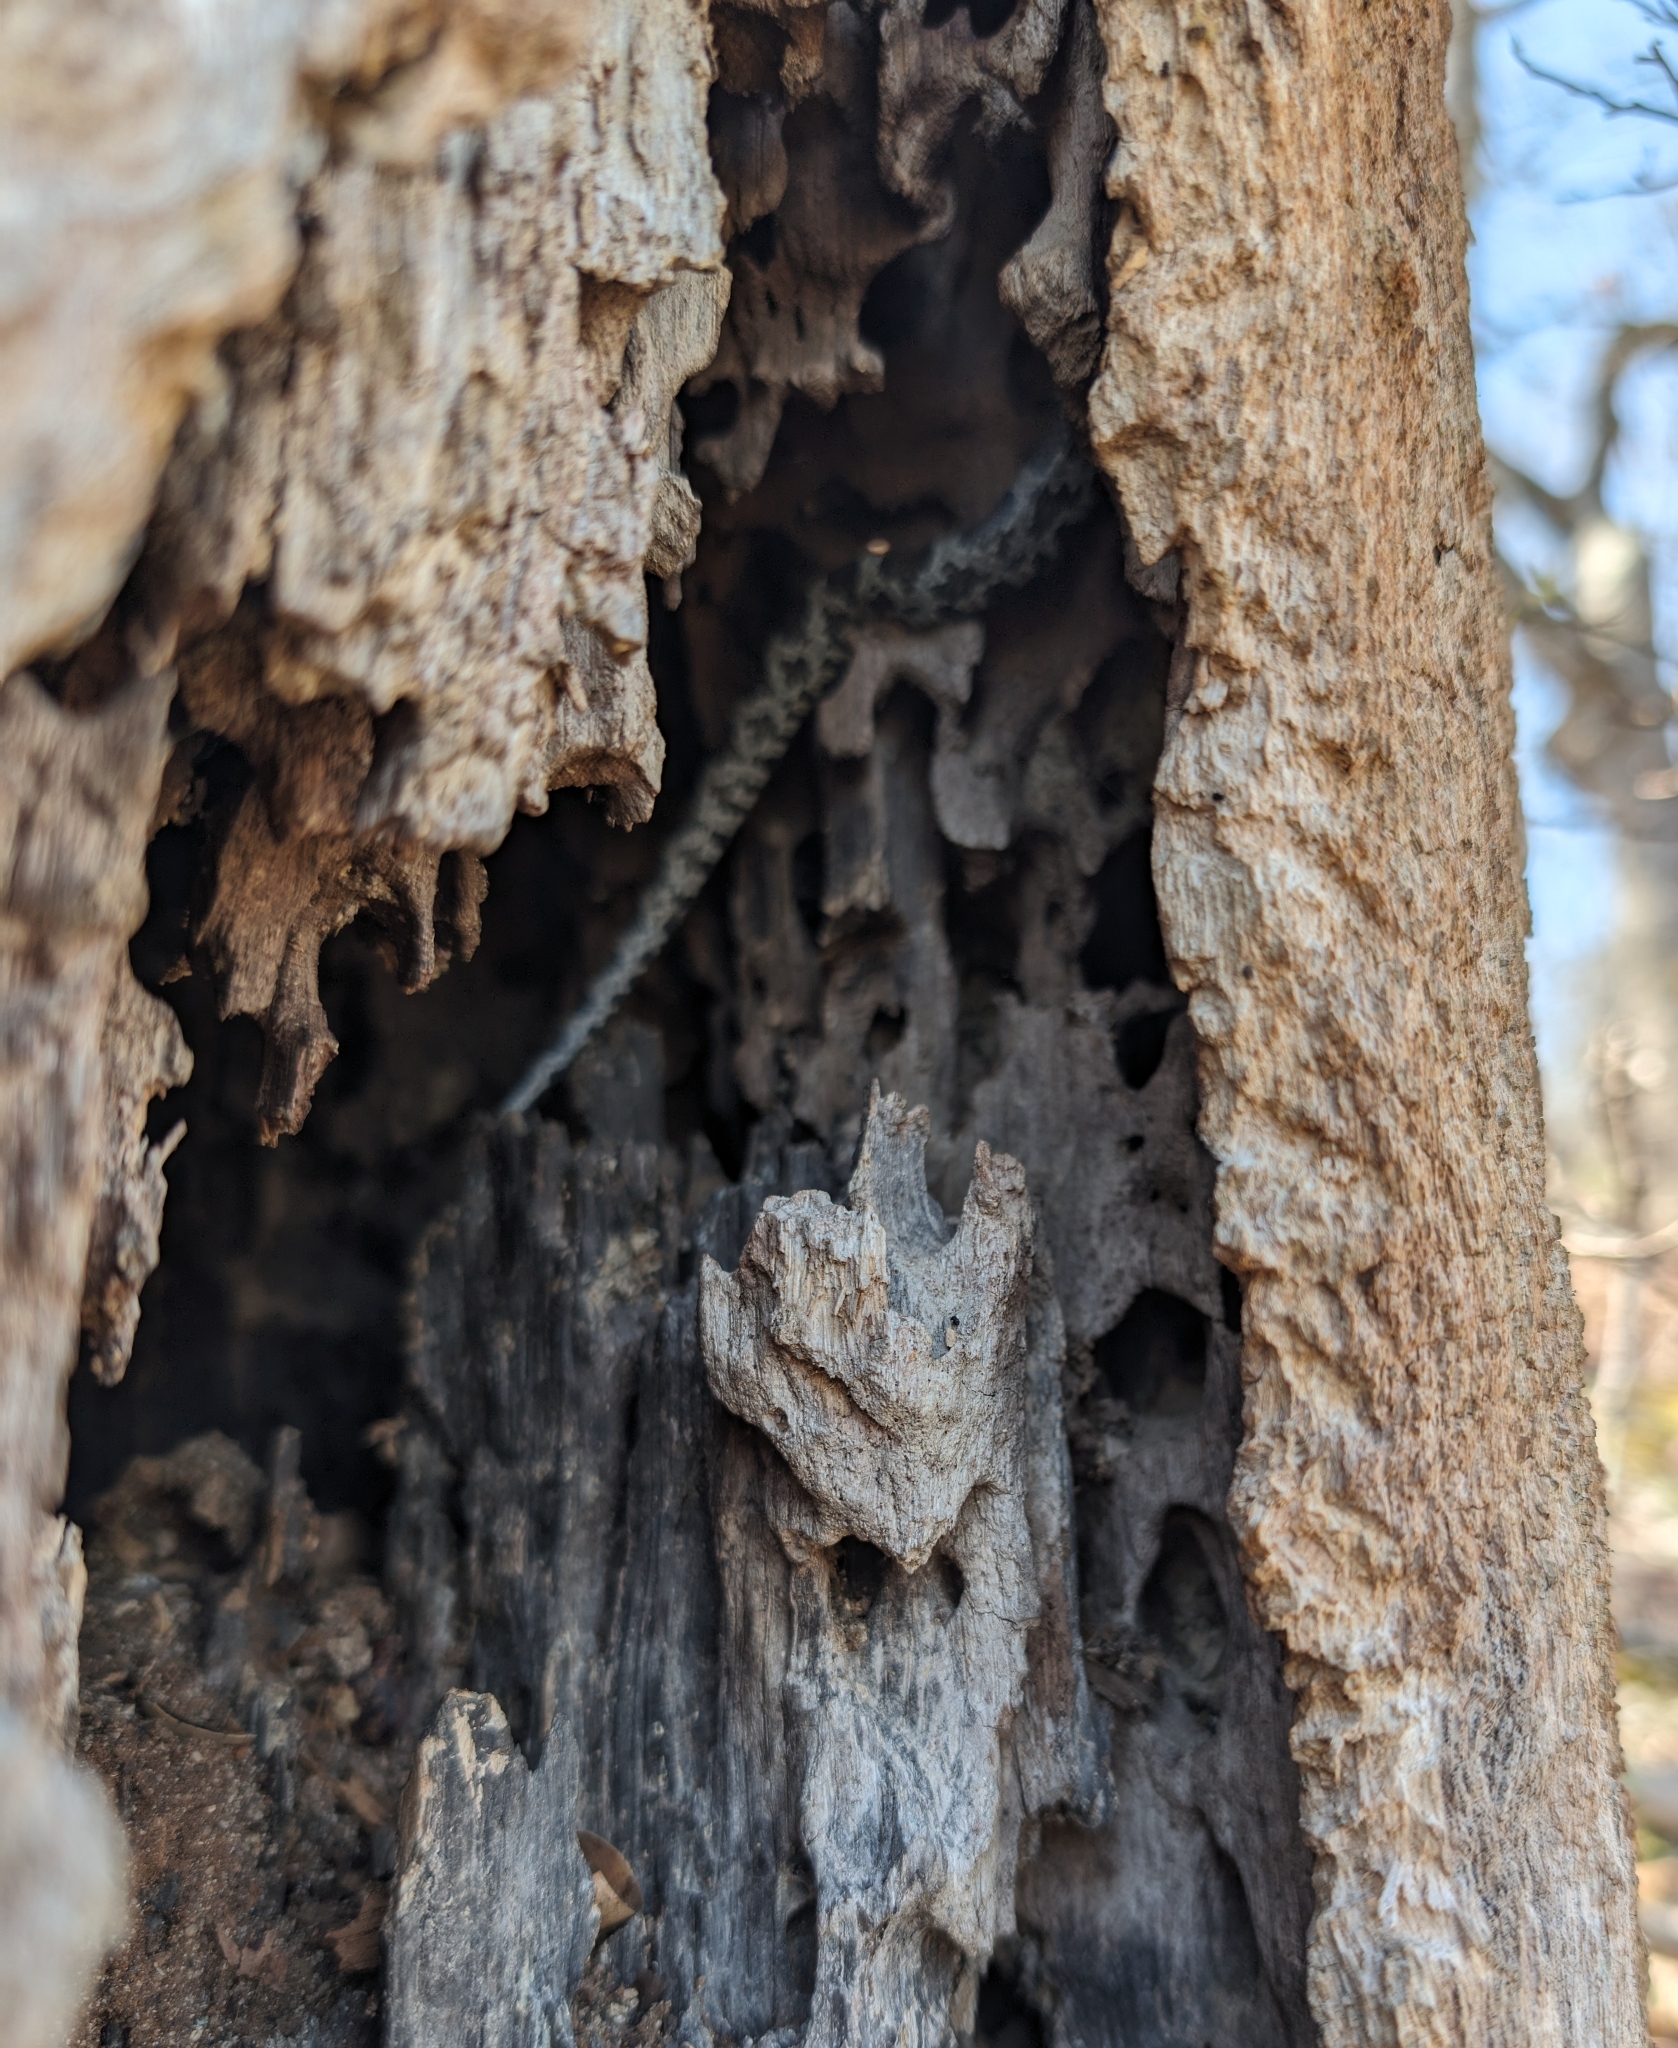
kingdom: Animalia
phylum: Chordata
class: Squamata
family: Colubridae
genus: Pantherophis
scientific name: Pantherophis obsoletus
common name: Black rat snake
